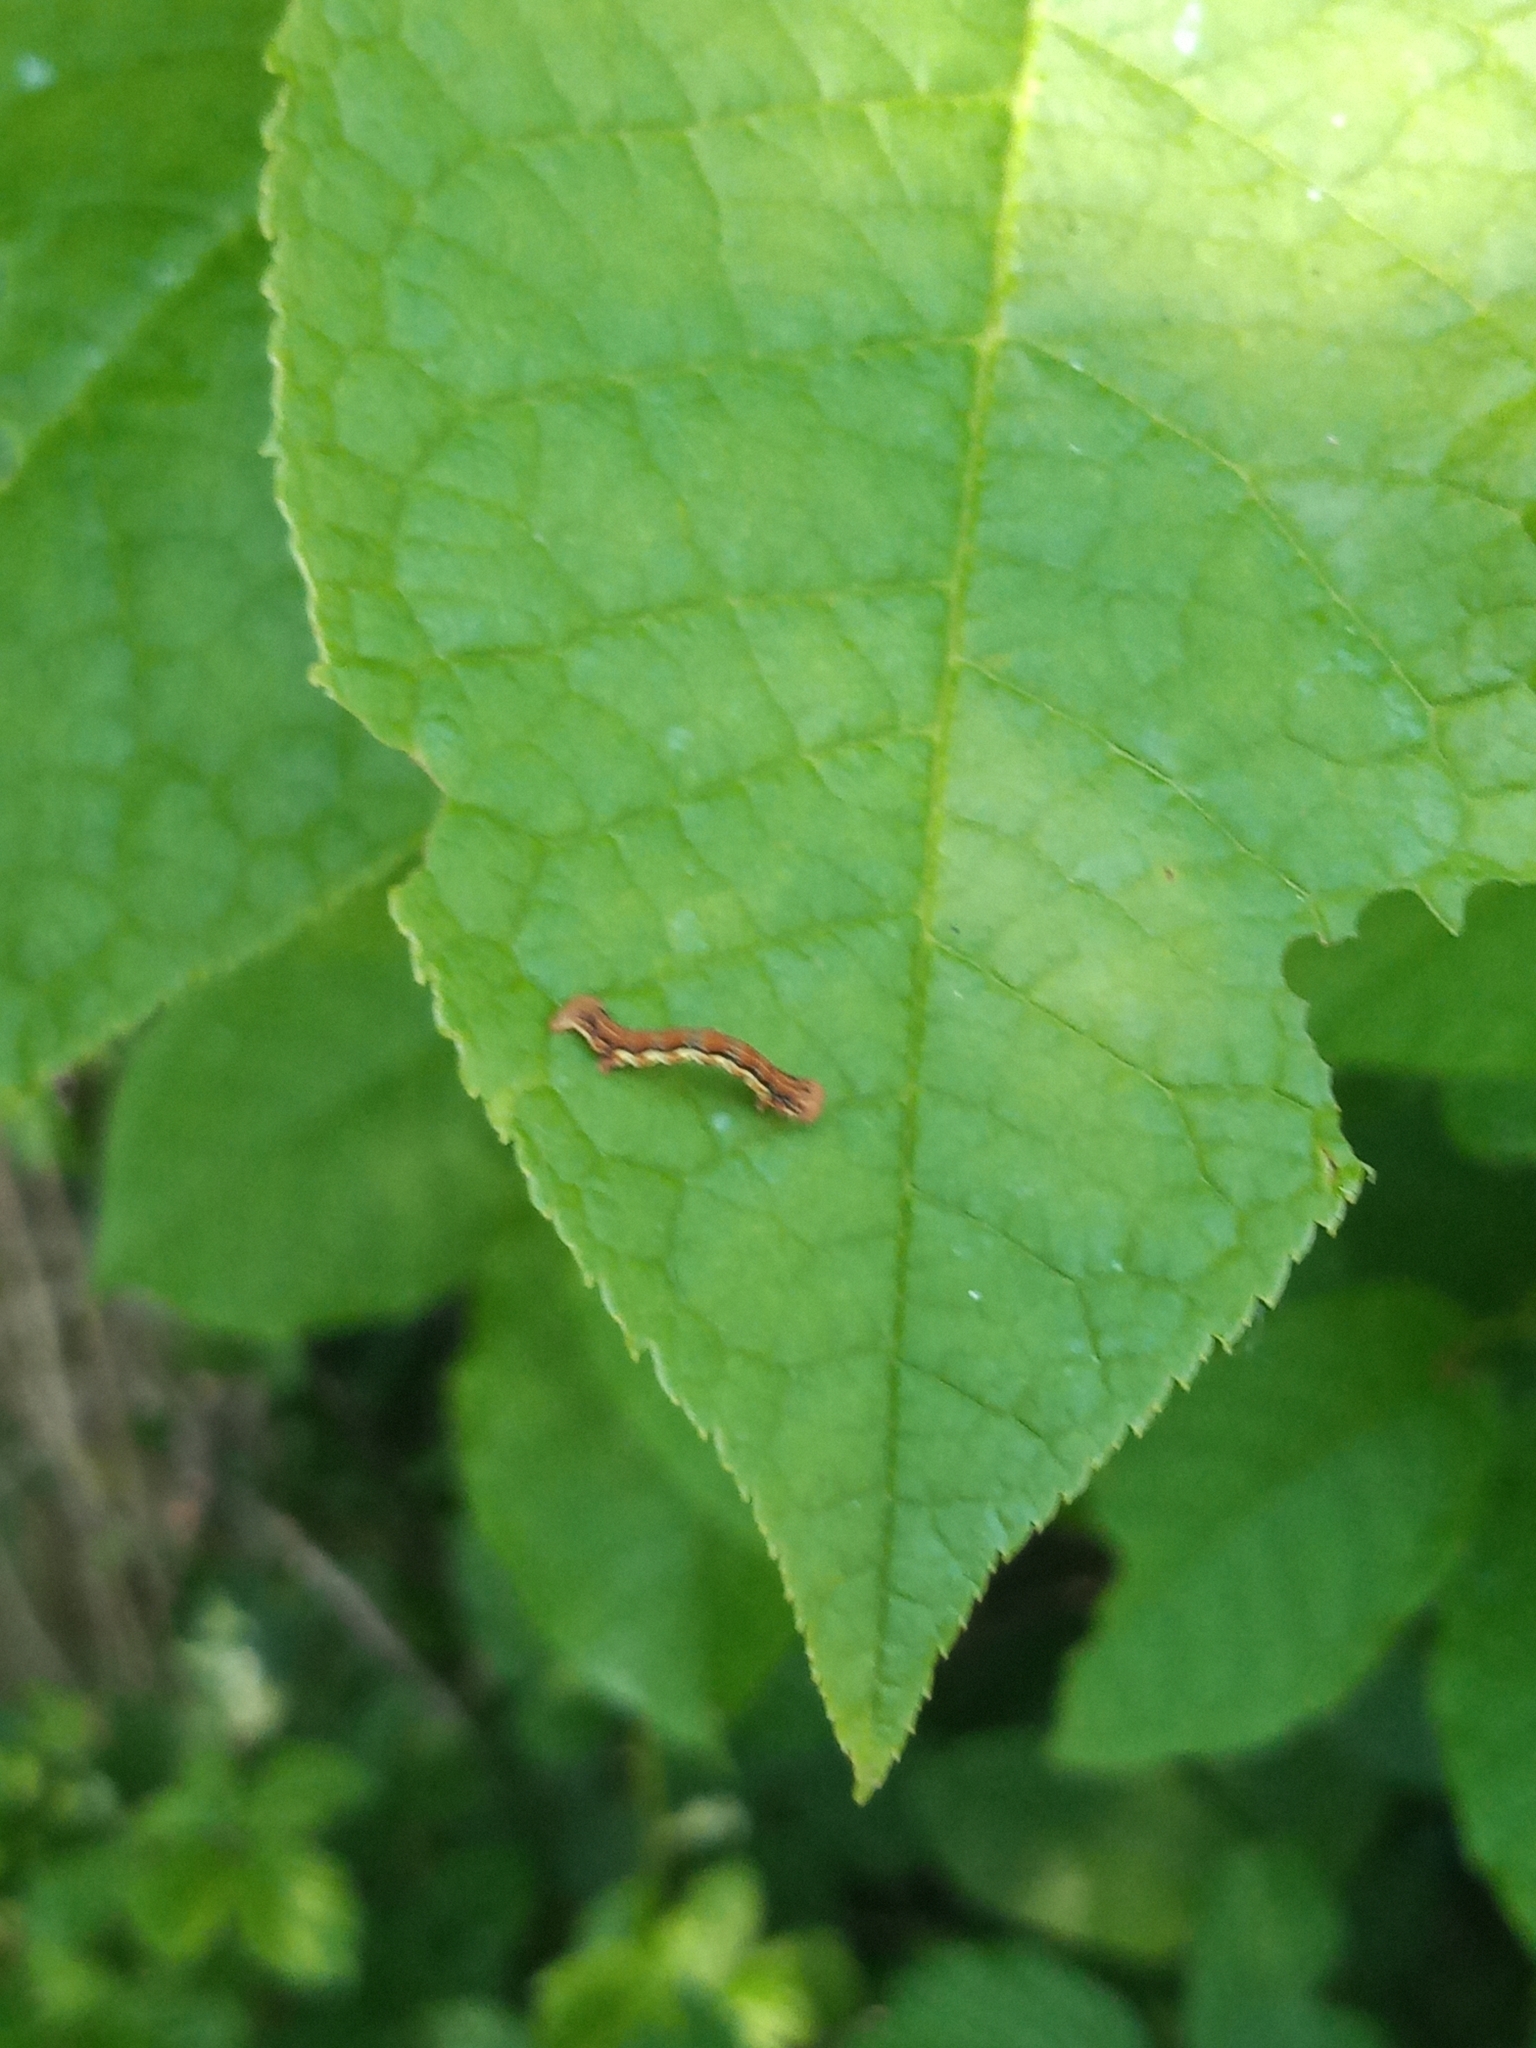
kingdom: Animalia
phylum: Arthropoda
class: Insecta
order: Lepidoptera
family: Geometridae
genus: Erannis
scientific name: Erannis defoliaria
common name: Mottled umber
